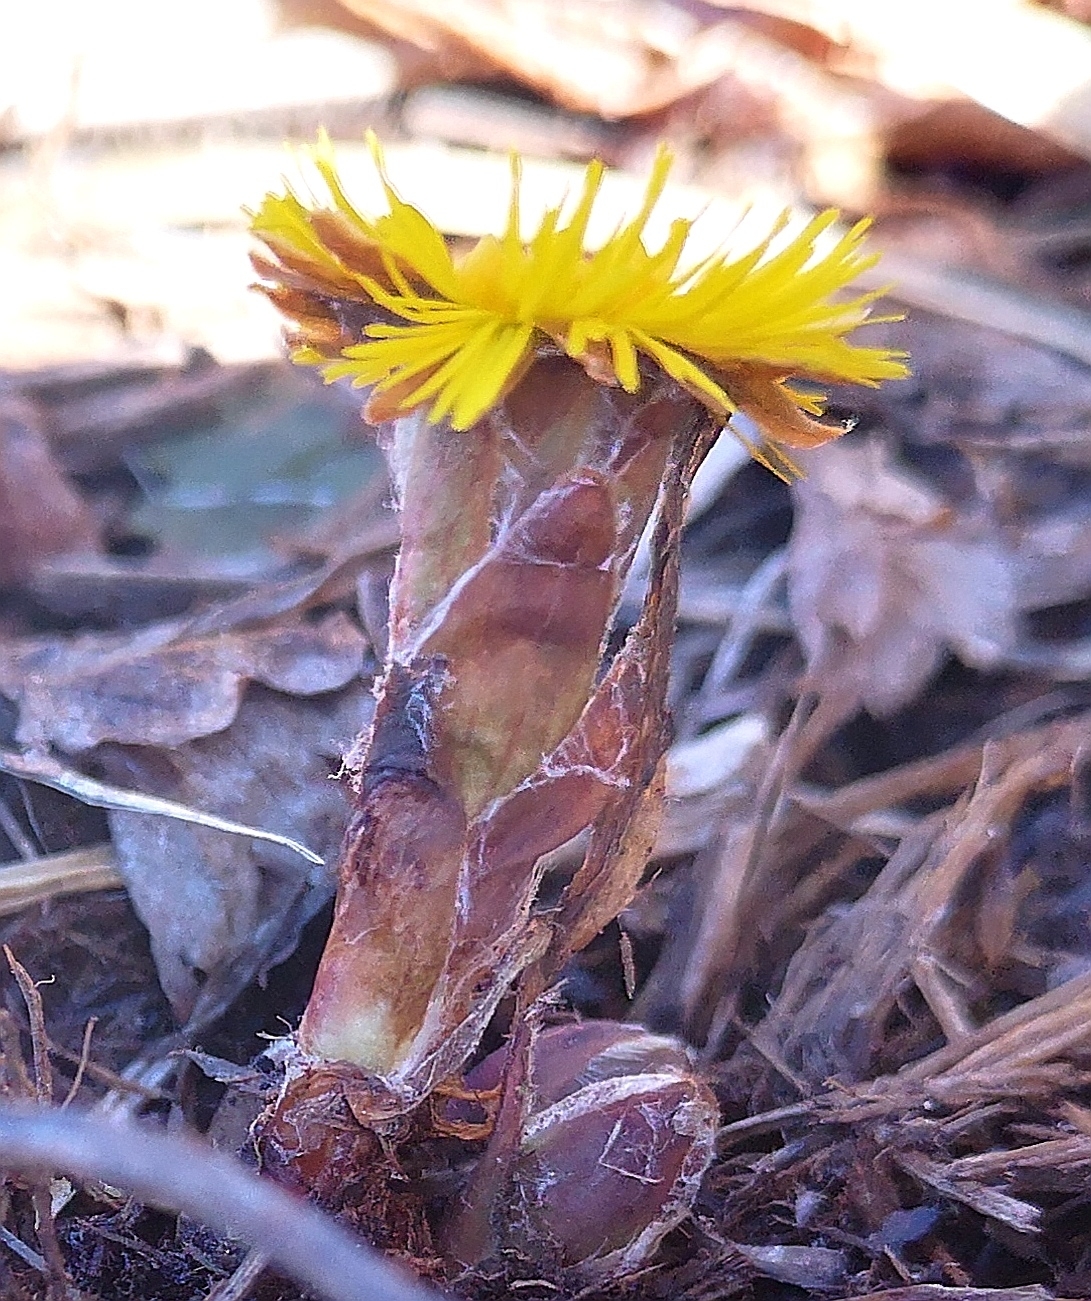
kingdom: Plantae
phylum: Tracheophyta
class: Magnoliopsida
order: Asterales
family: Asteraceae
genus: Tussilago
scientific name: Tussilago farfara
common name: Coltsfoot
